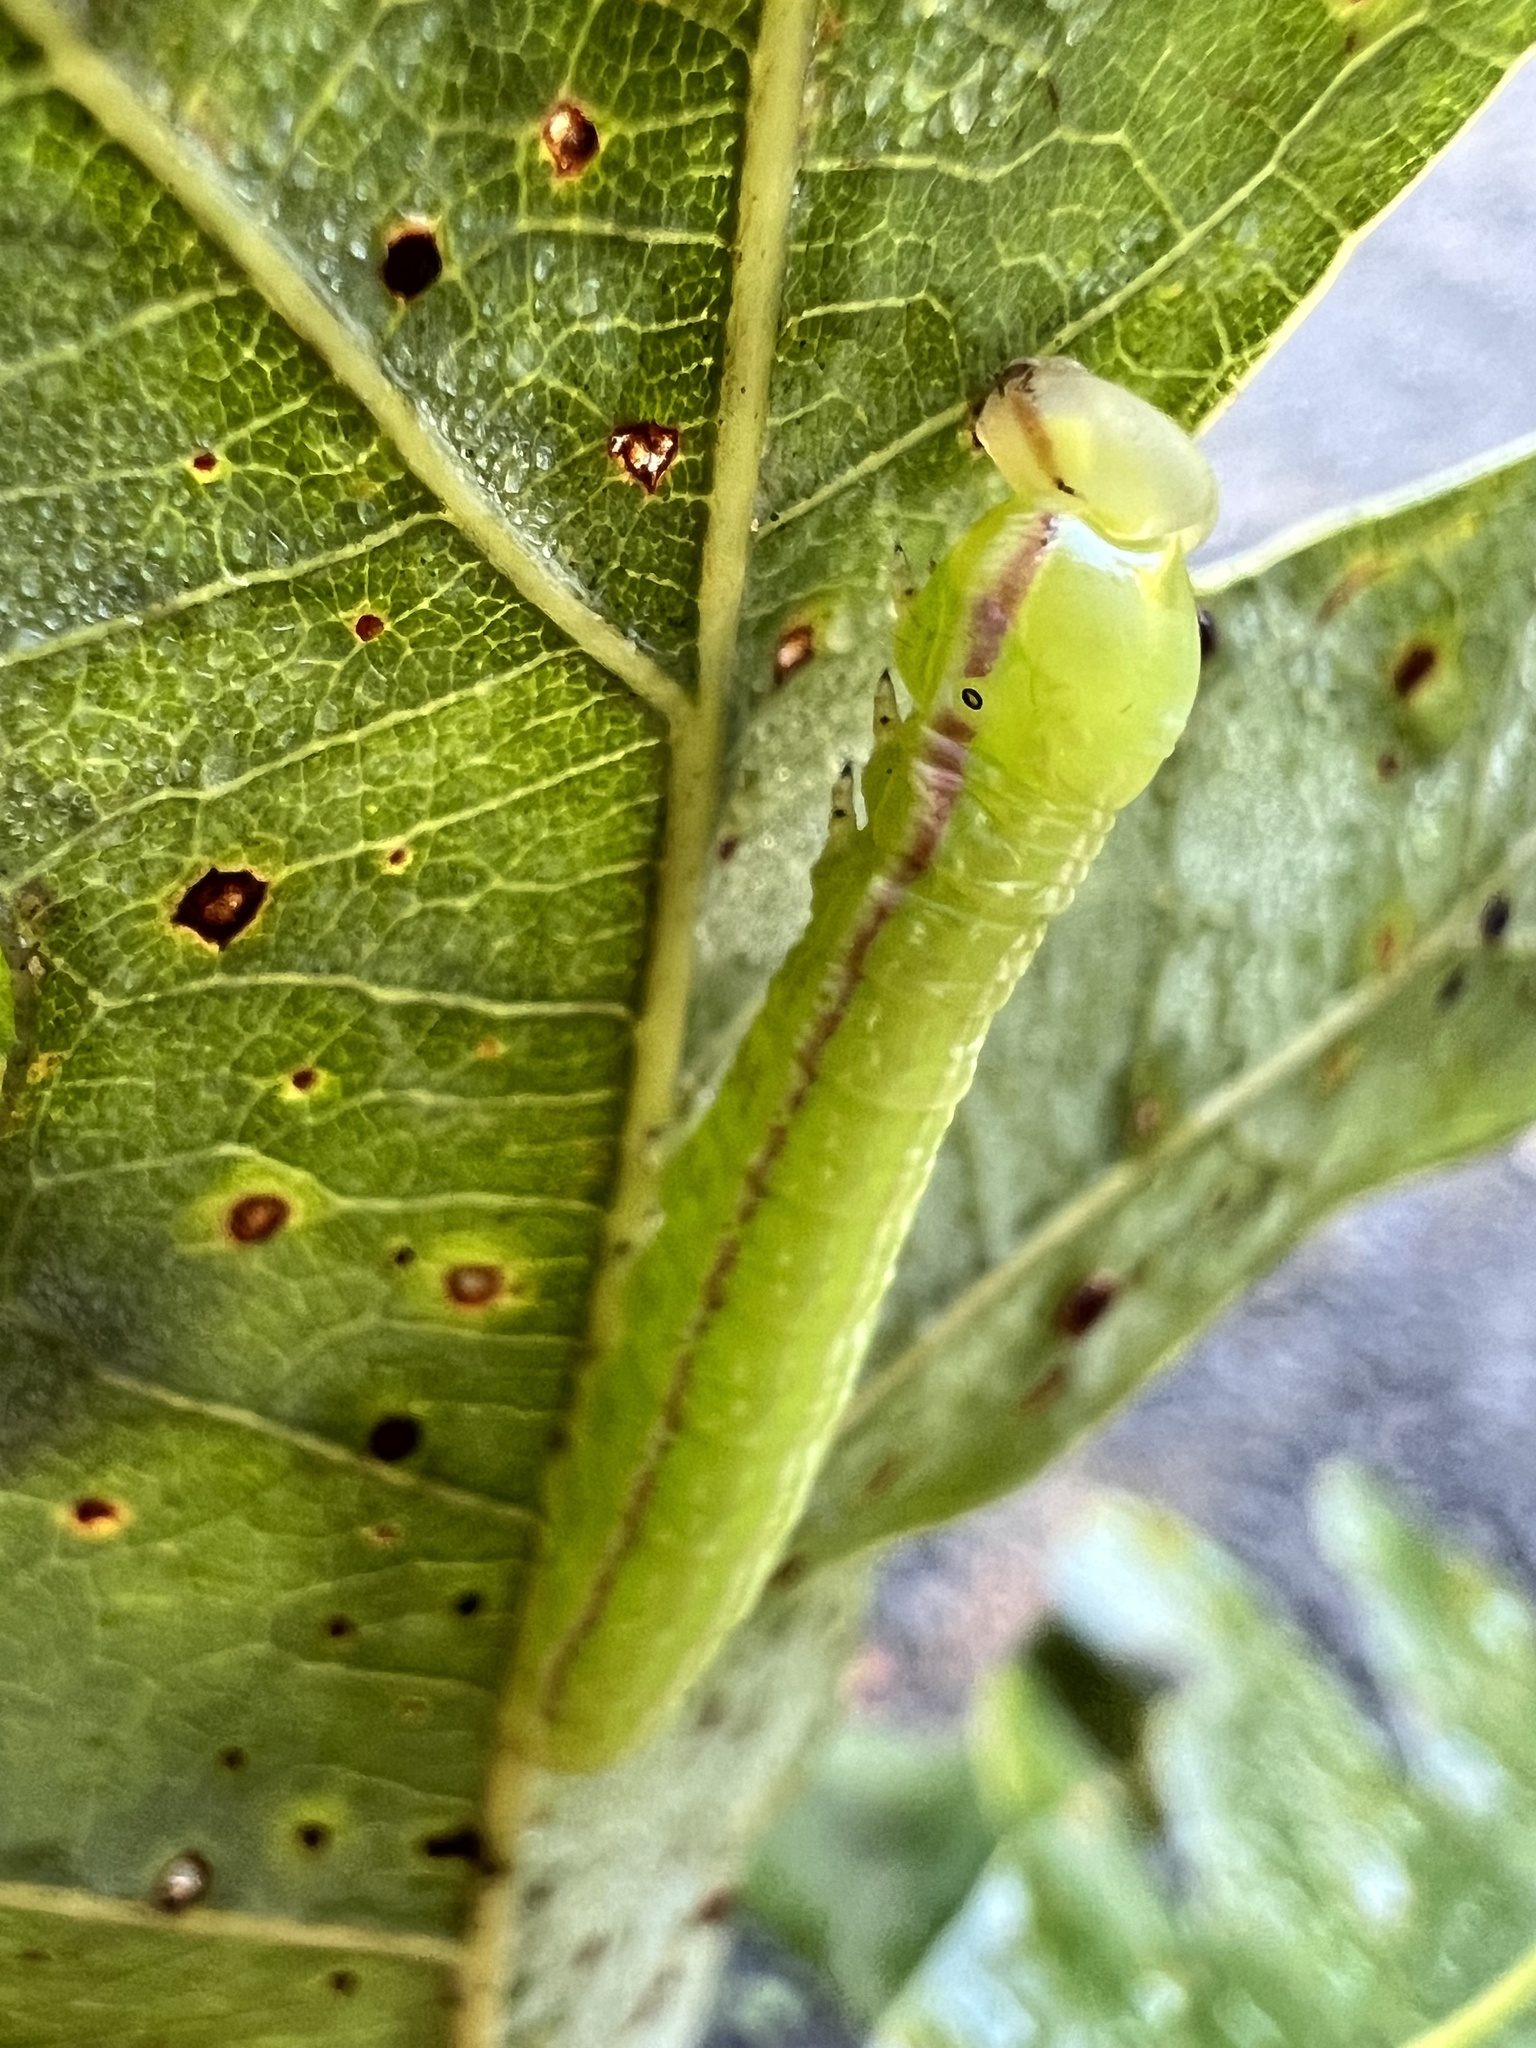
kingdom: Animalia
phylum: Arthropoda
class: Insecta
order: Lepidoptera
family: Notodontidae
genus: Peridea
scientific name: Peridea angulosa
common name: Angulose prominent
